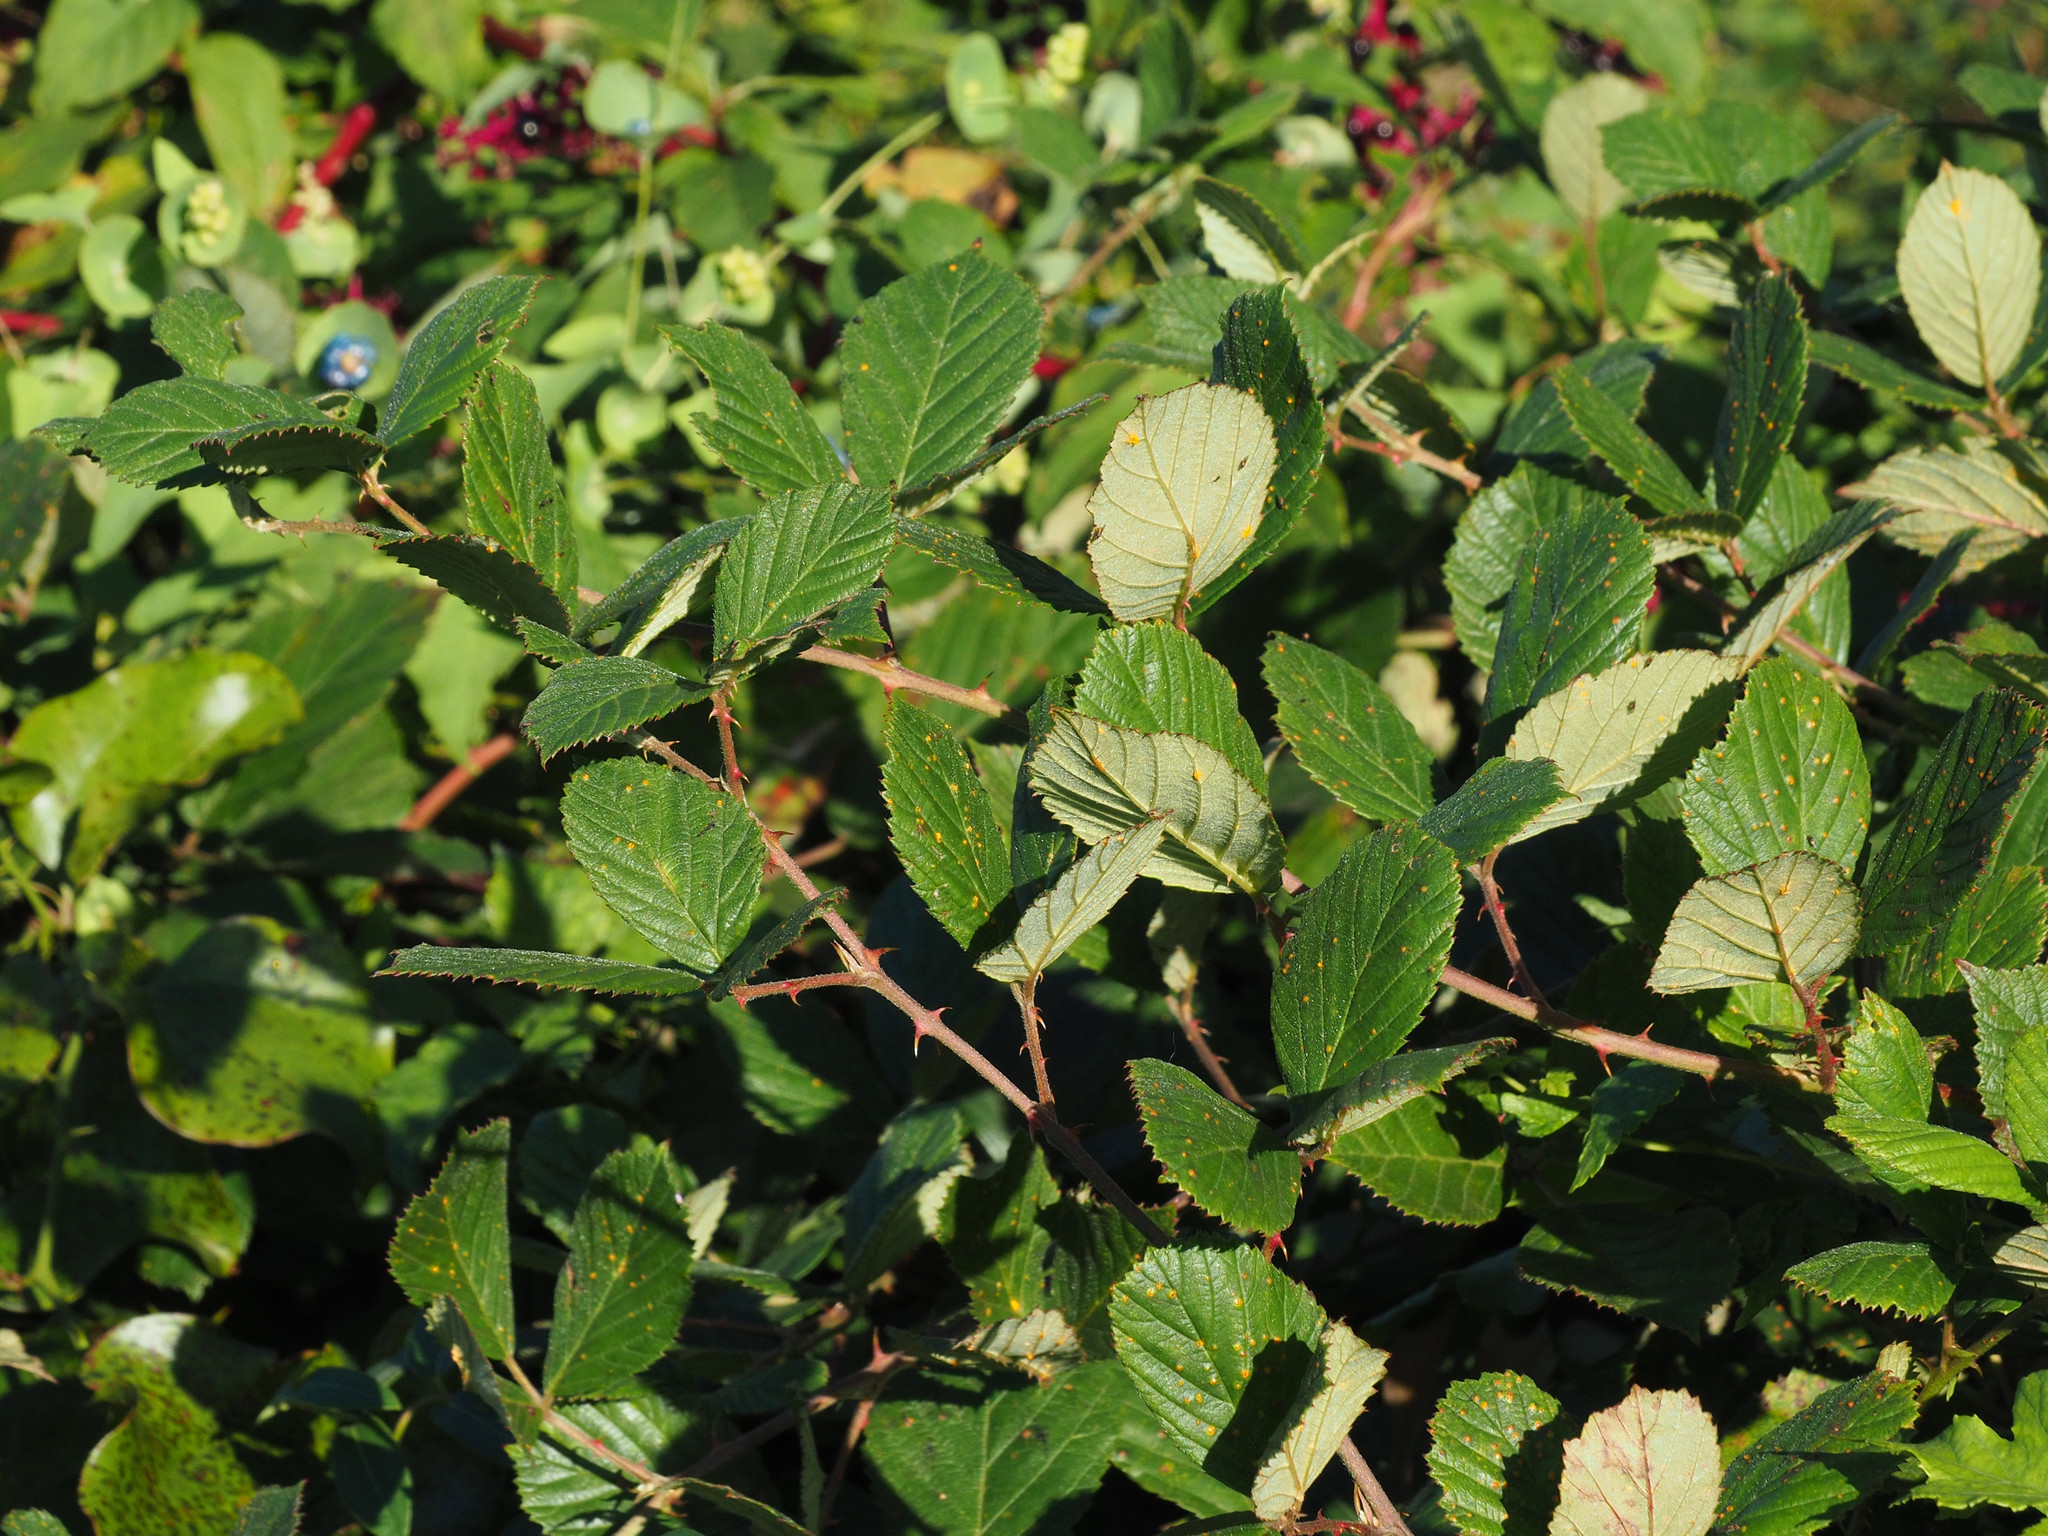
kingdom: Plantae
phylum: Tracheophyta
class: Magnoliopsida
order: Rosales
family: Rosaceae
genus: Rubus
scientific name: Rubus pascuus
